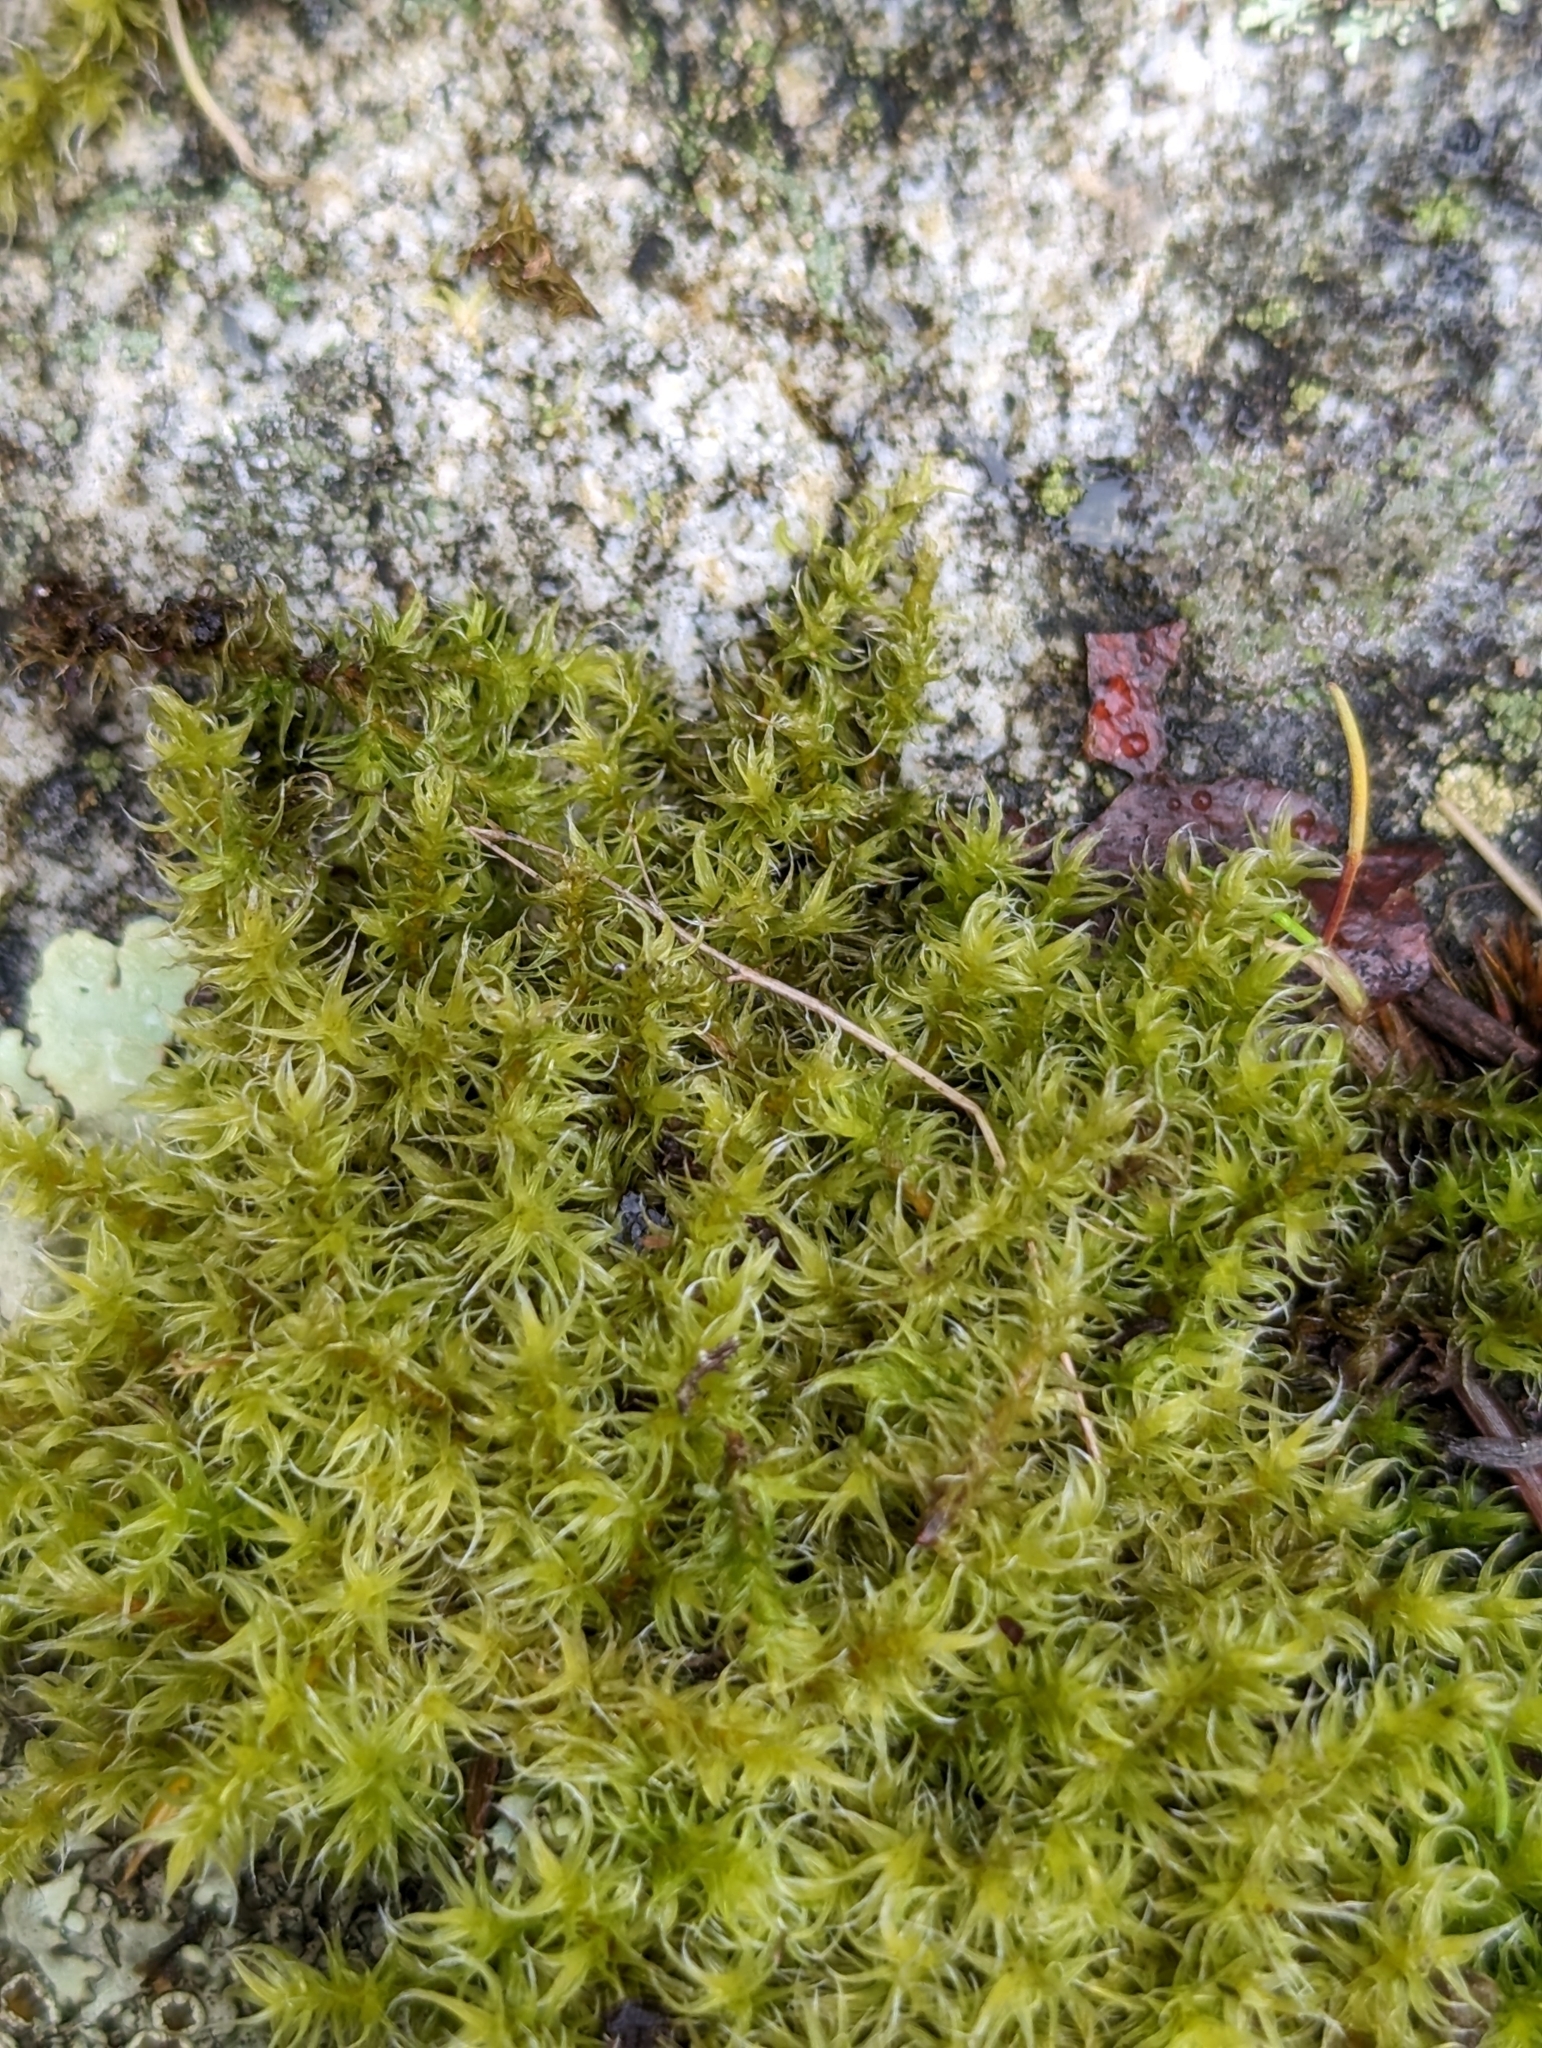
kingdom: Plantae
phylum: Bryophyta
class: Bryopsida
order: Grimmiales
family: Grimmiaceae
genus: Niphotrichum
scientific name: Niphotrichum elongatum
